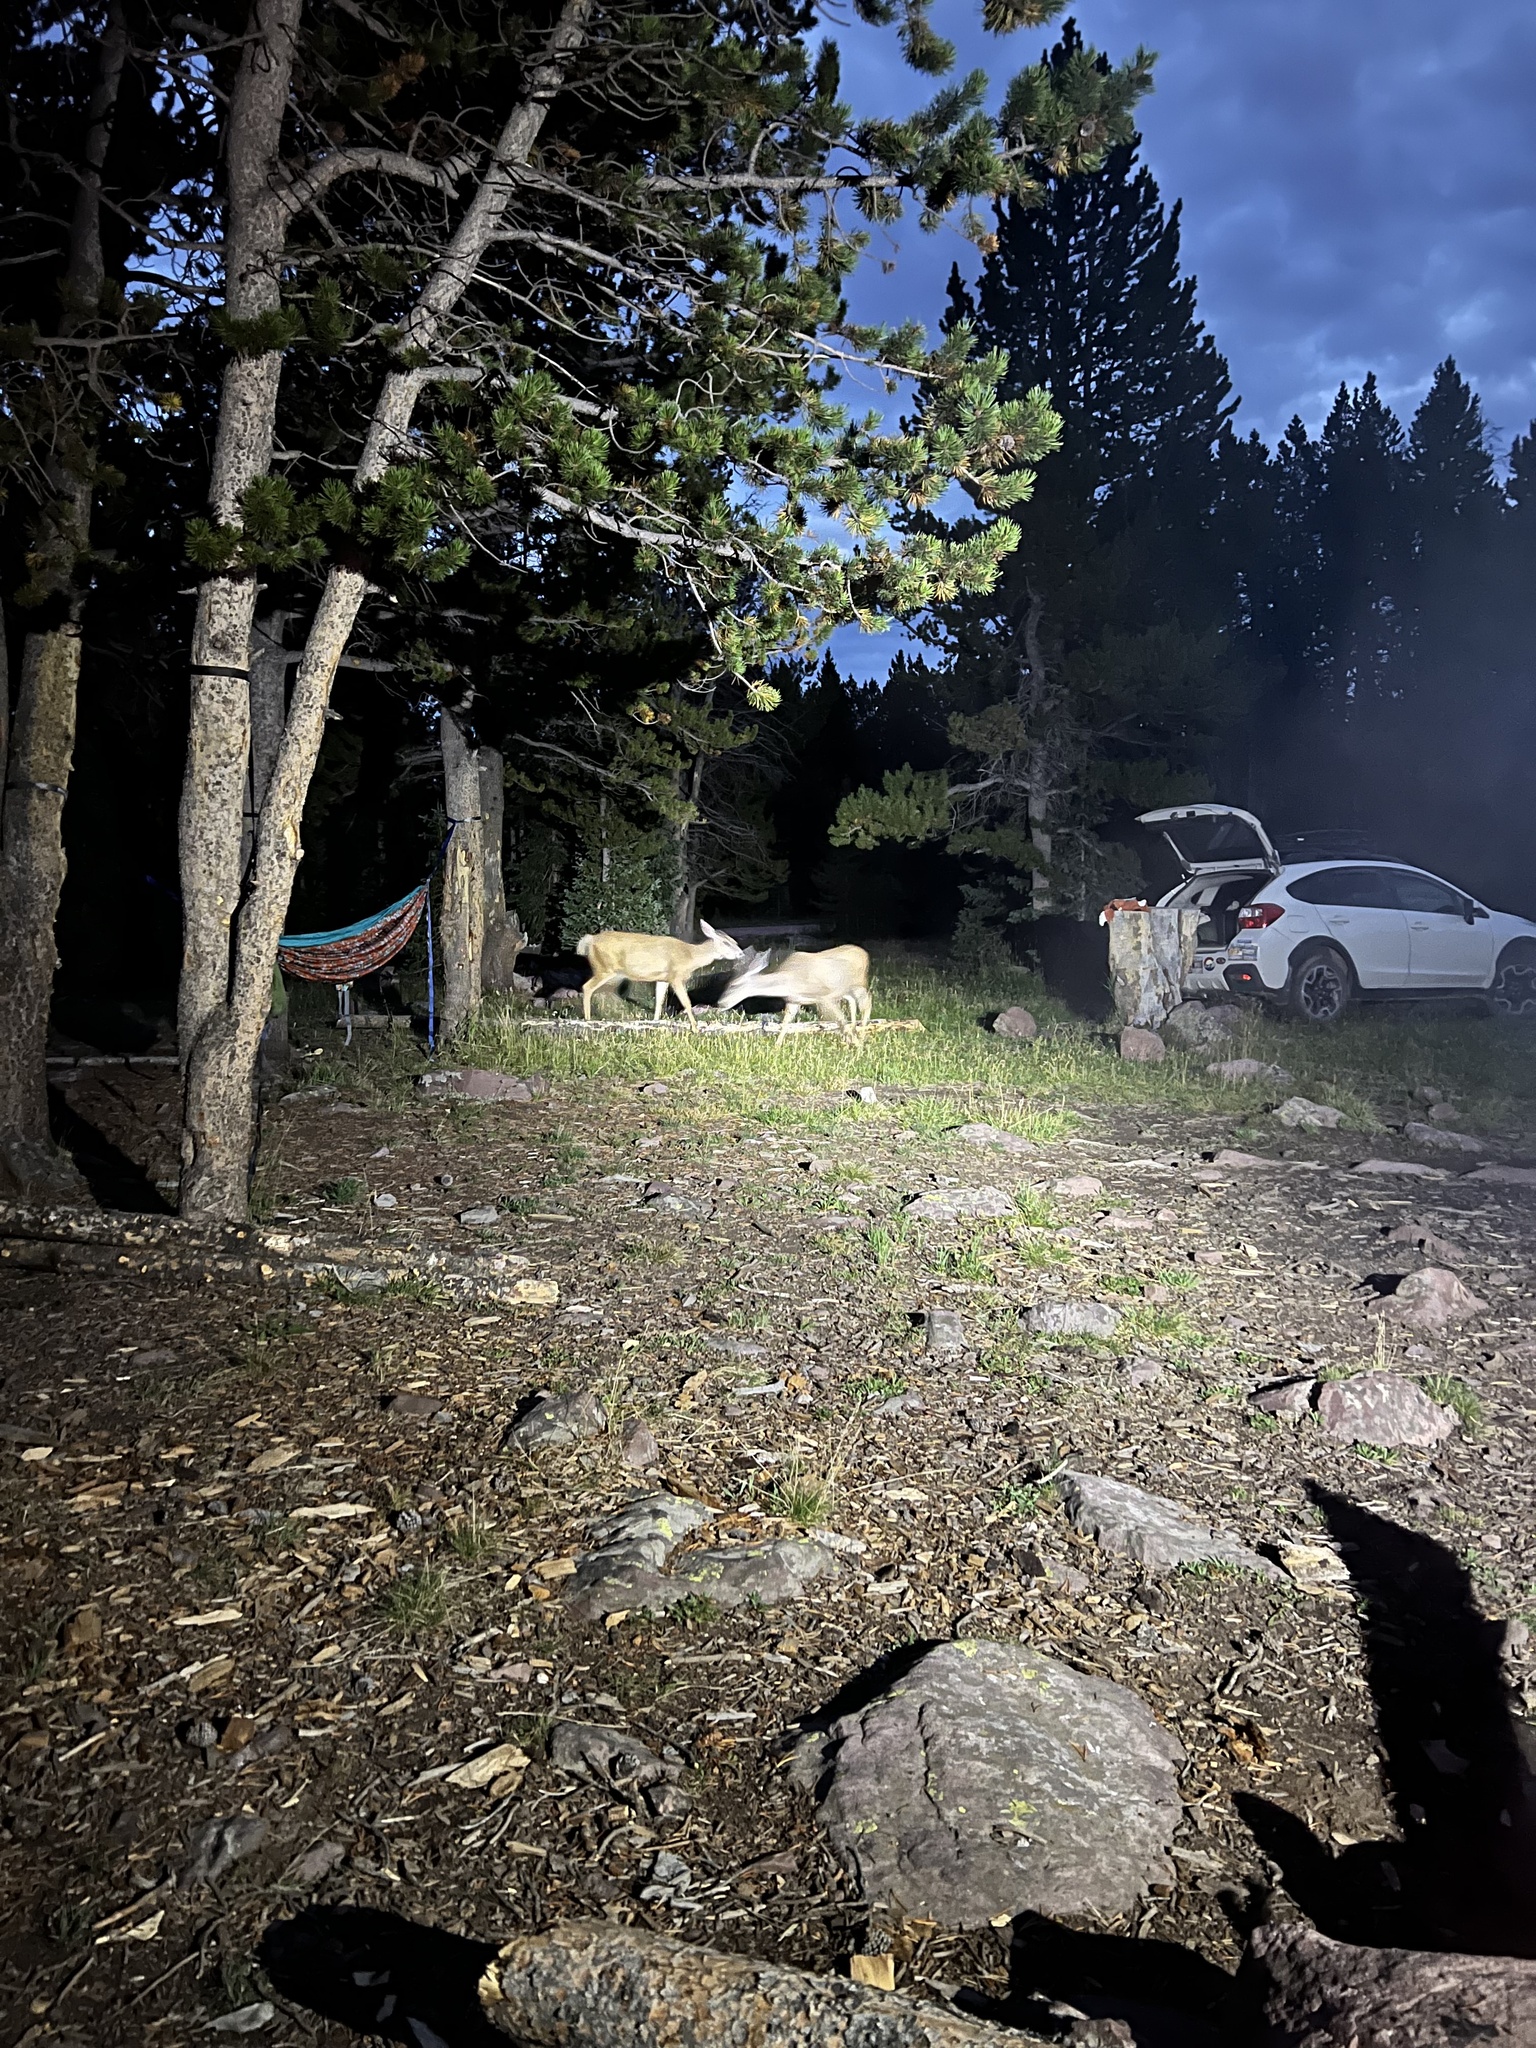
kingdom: Animalia
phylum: Chordata
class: Mammalia
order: Artiodactyla
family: Cervidae
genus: Odocoileus
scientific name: Odocoileus hemionus
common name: Mule deer
